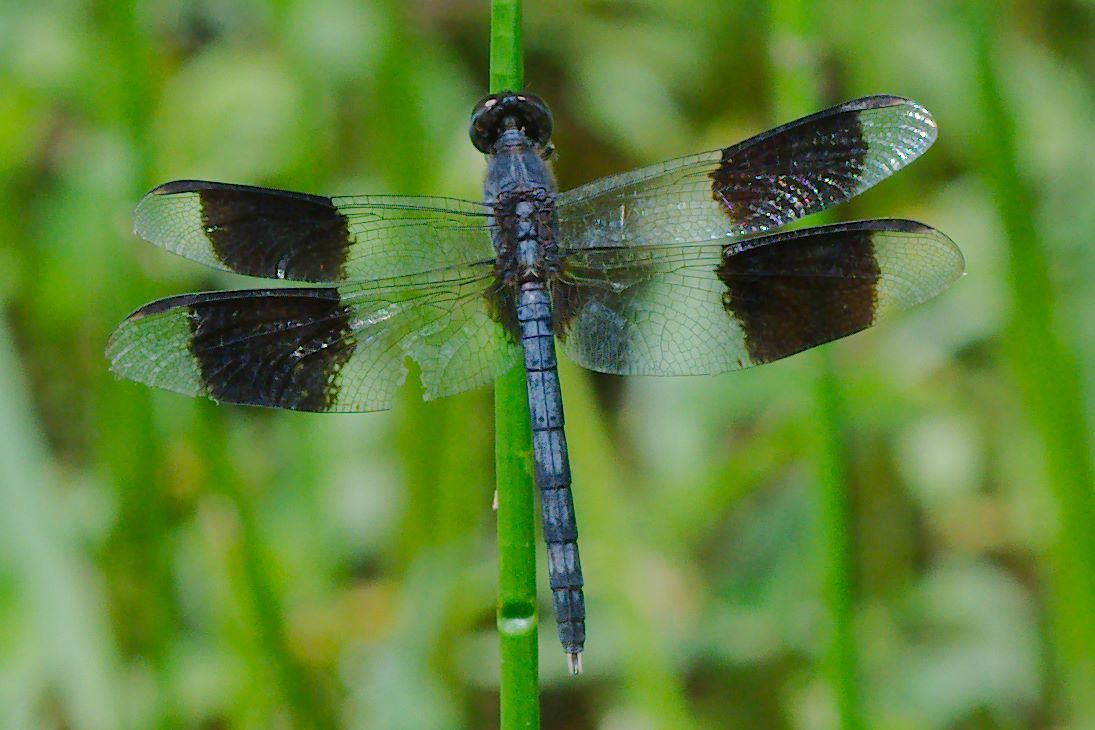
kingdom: Animalia
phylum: Arthropoda
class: Insecta
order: Odonata
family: Libellulidae
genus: Erythrodiplax
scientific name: Erythrodiplax umbrata
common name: Band-winged dragonlet
